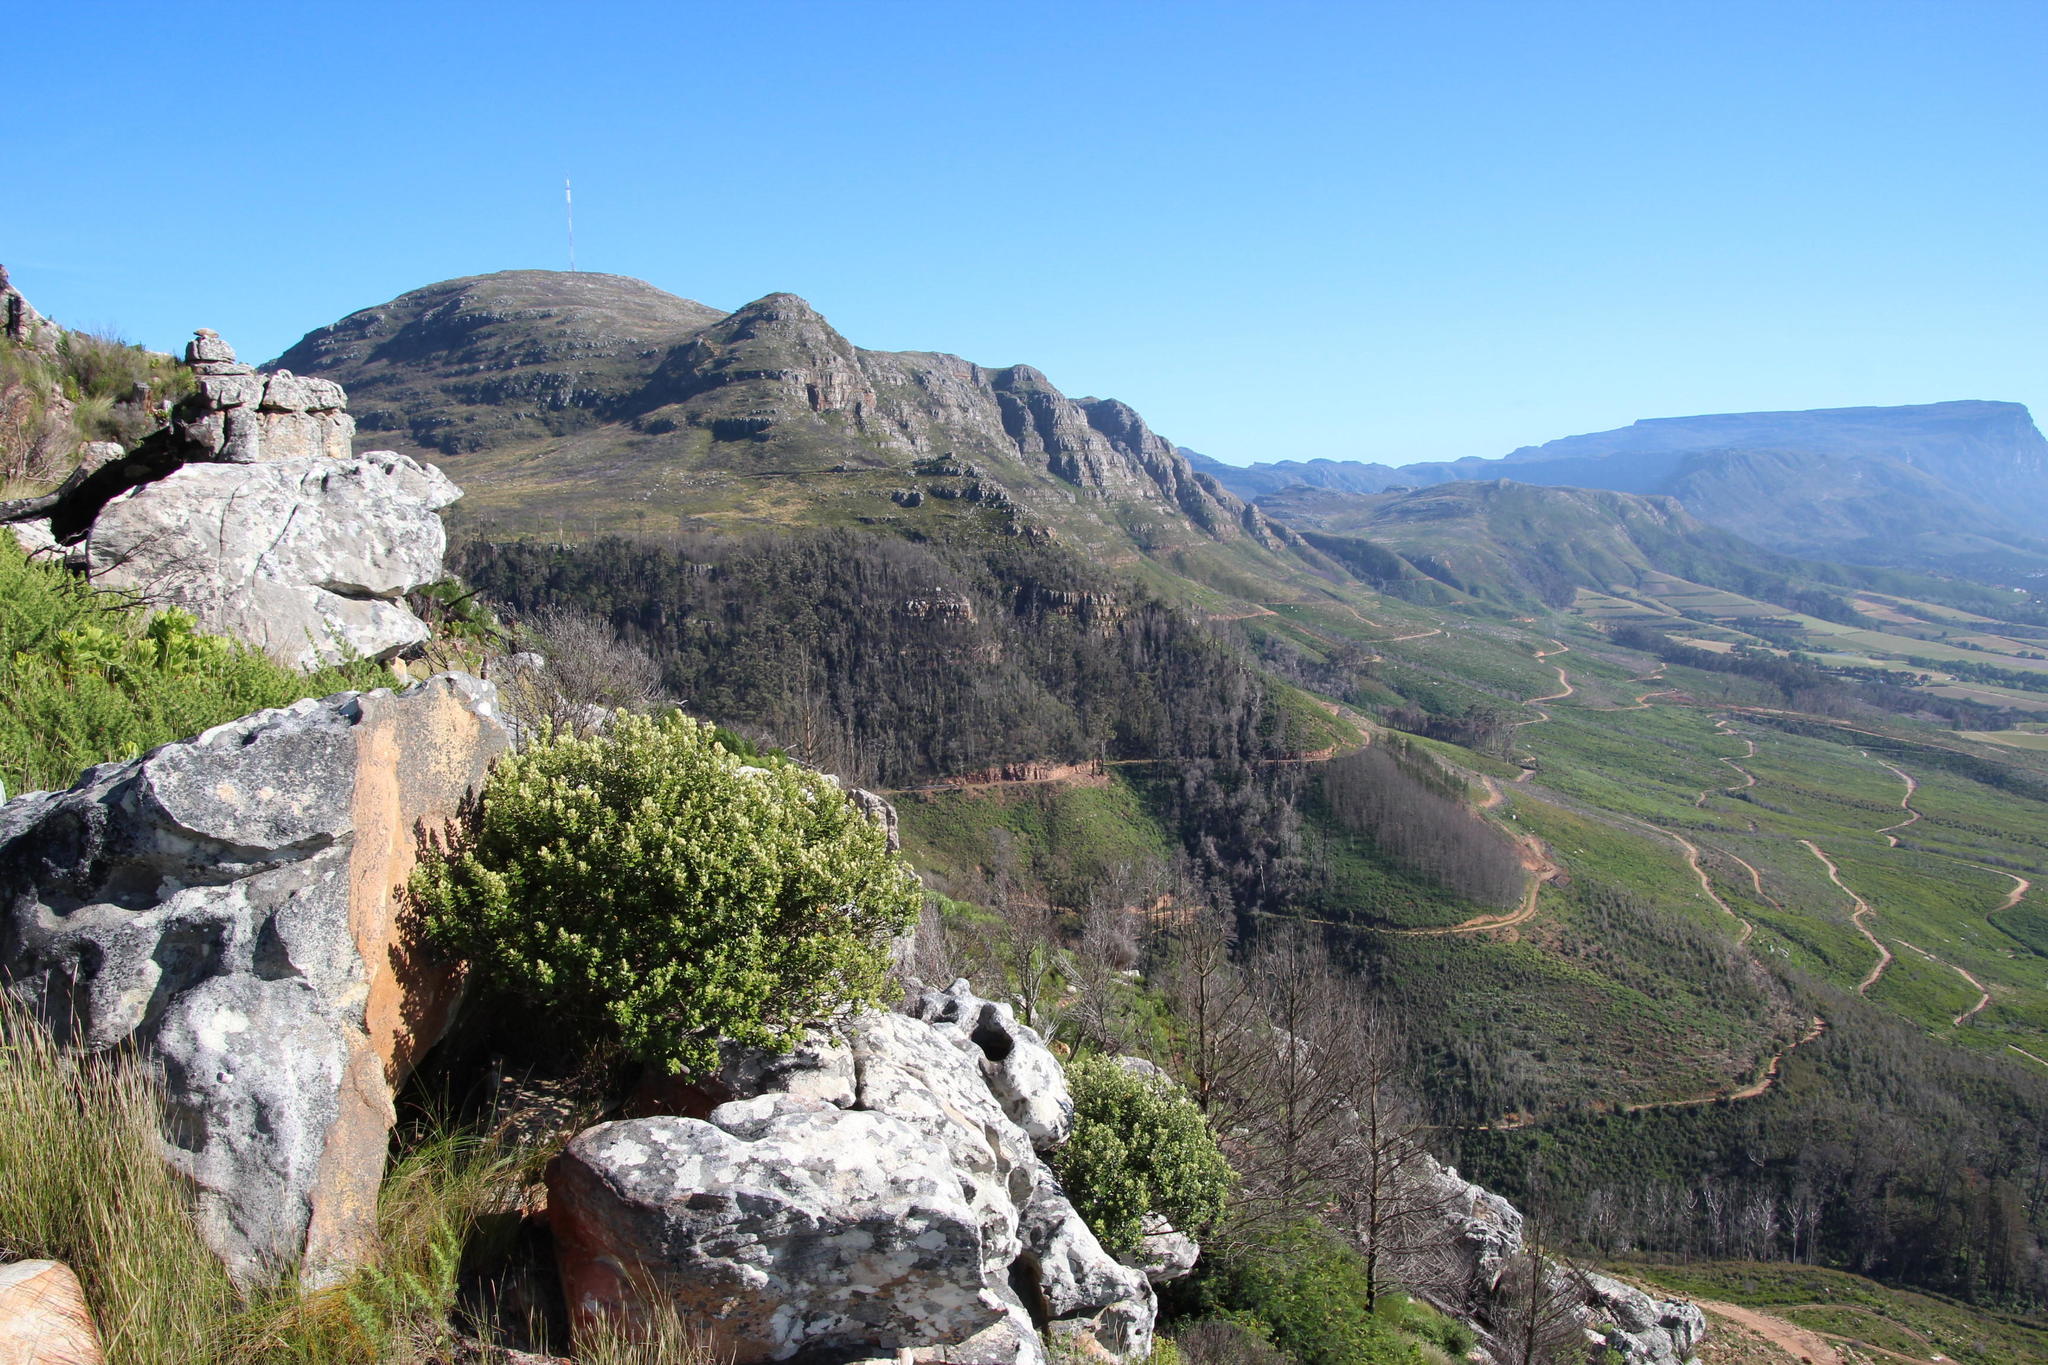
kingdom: Plantae
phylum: Tracheophyta
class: Magnoliopsida
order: Rosales
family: Rhamnaceae
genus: Phylica
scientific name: Phylica buxifolia
